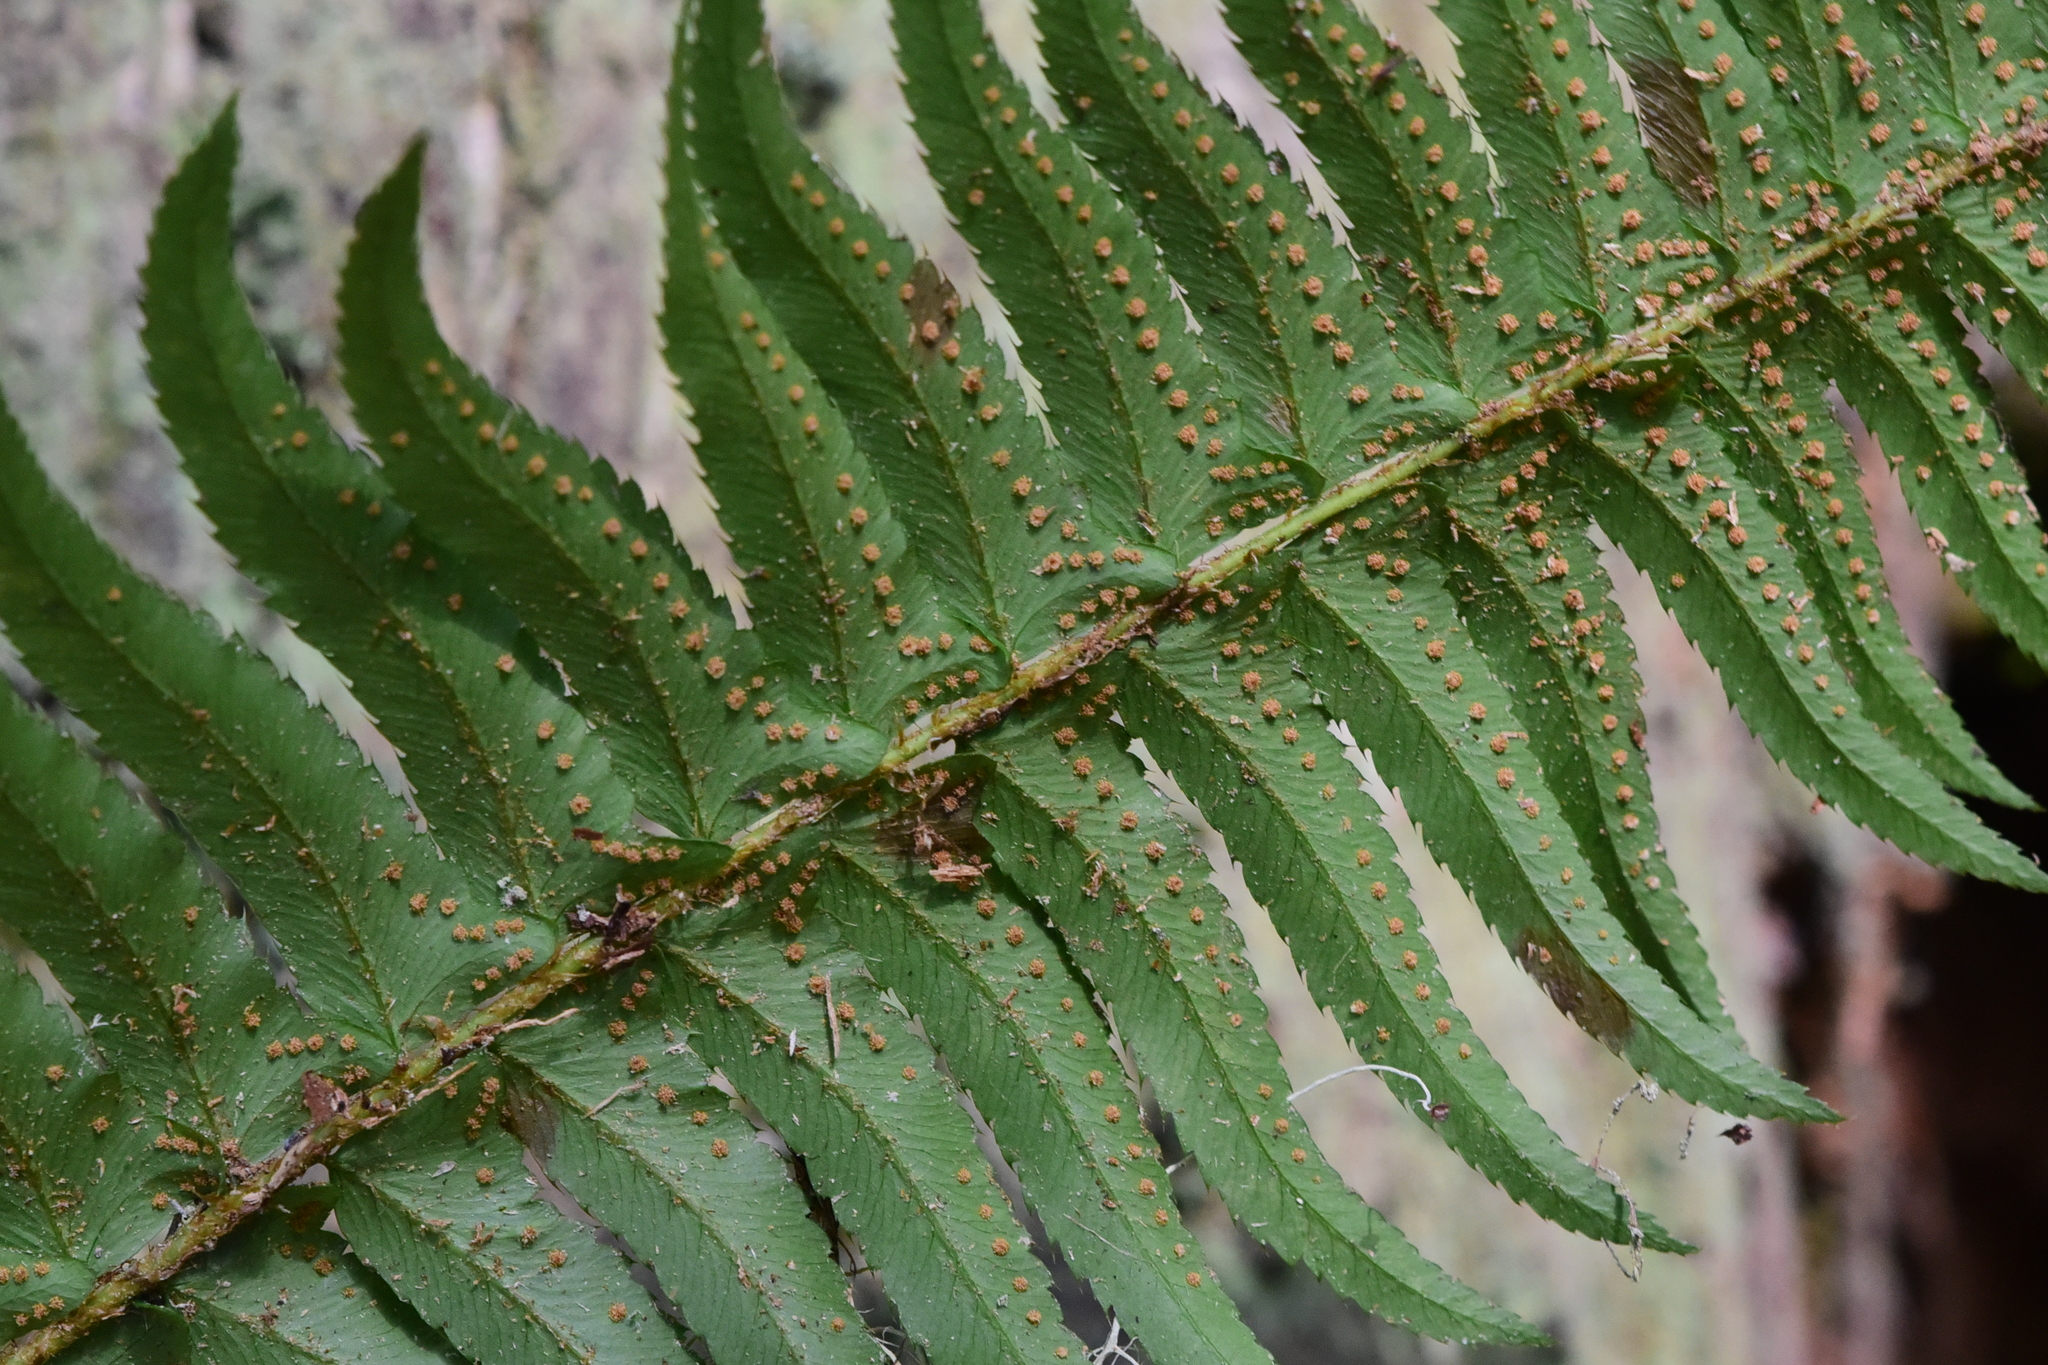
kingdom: Plantae
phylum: Tracheophyta
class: Polypodiopsida
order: Polypodiales
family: Dryopteridaceae
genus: Polystichum
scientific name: Polystichum munitum
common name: Western sword-fern
